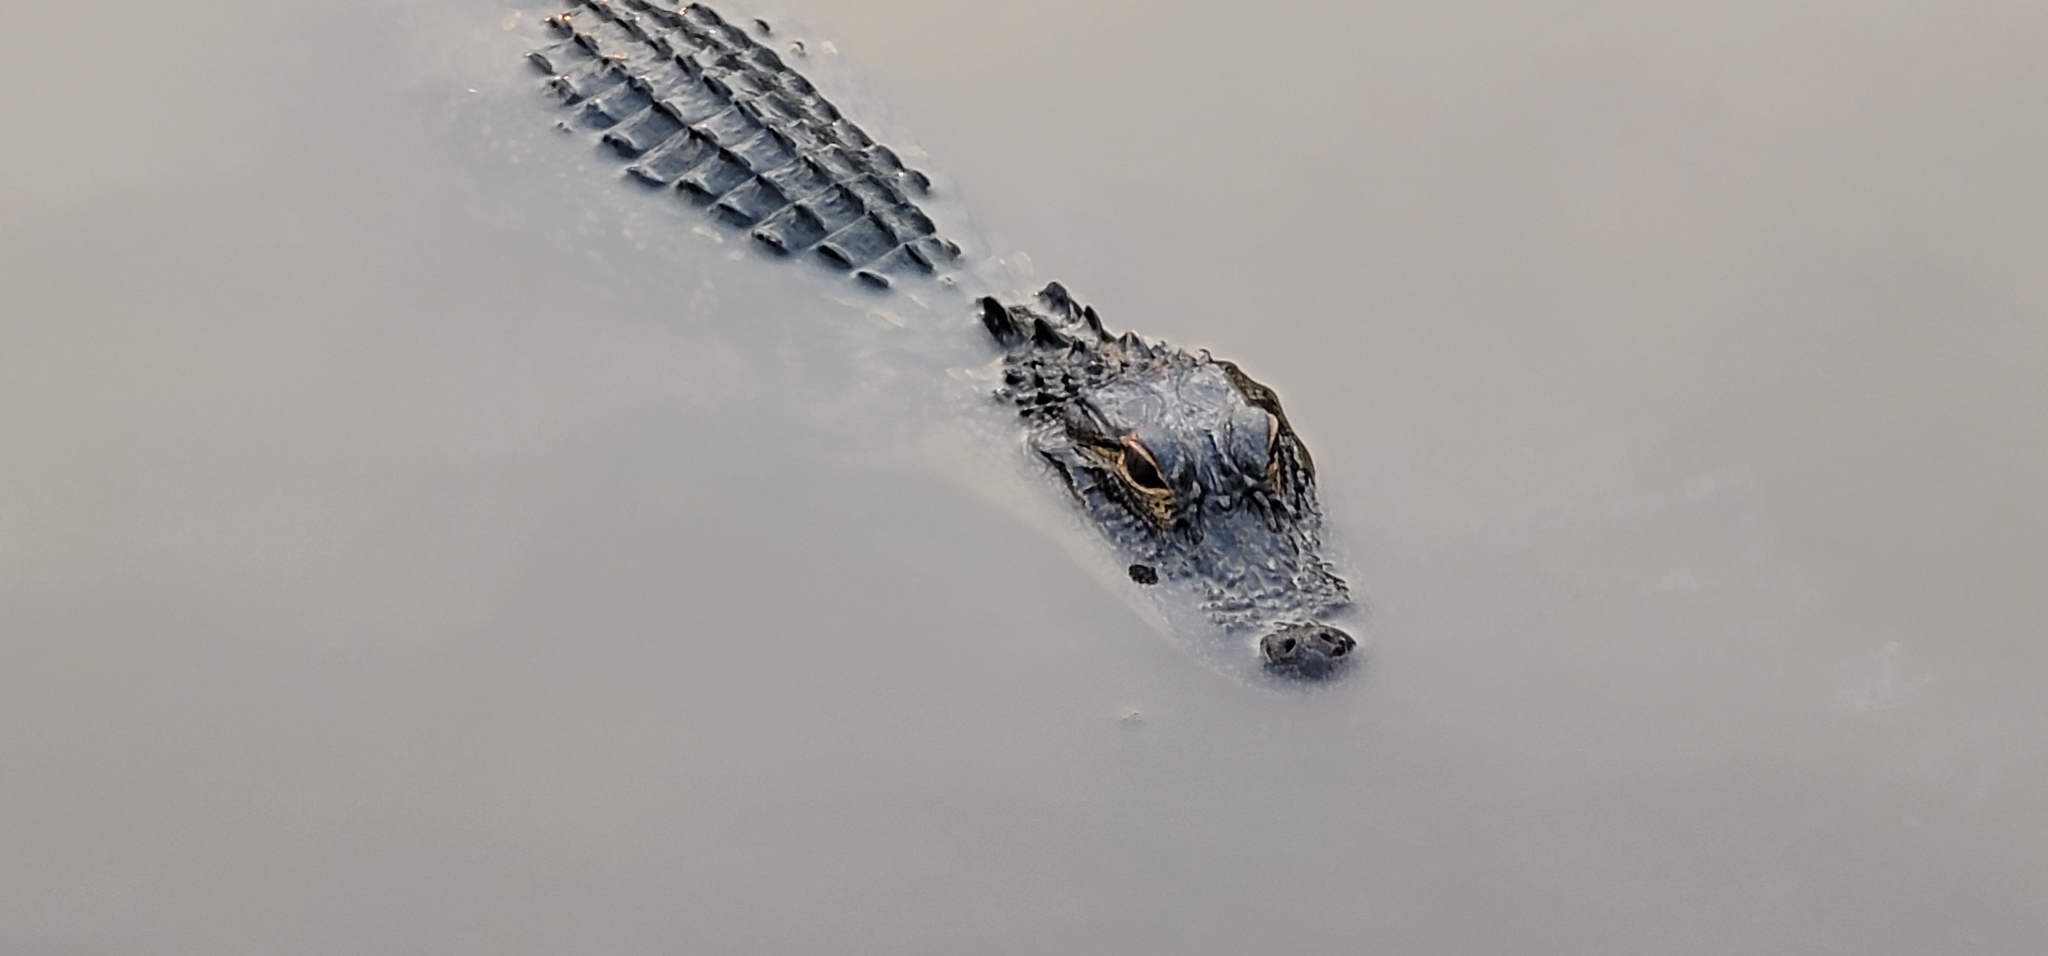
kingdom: Animalia
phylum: Chordata
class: Crocodylia
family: Alligatoridae
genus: Alligator
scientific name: Alligator mississippiensis
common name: American alligator
